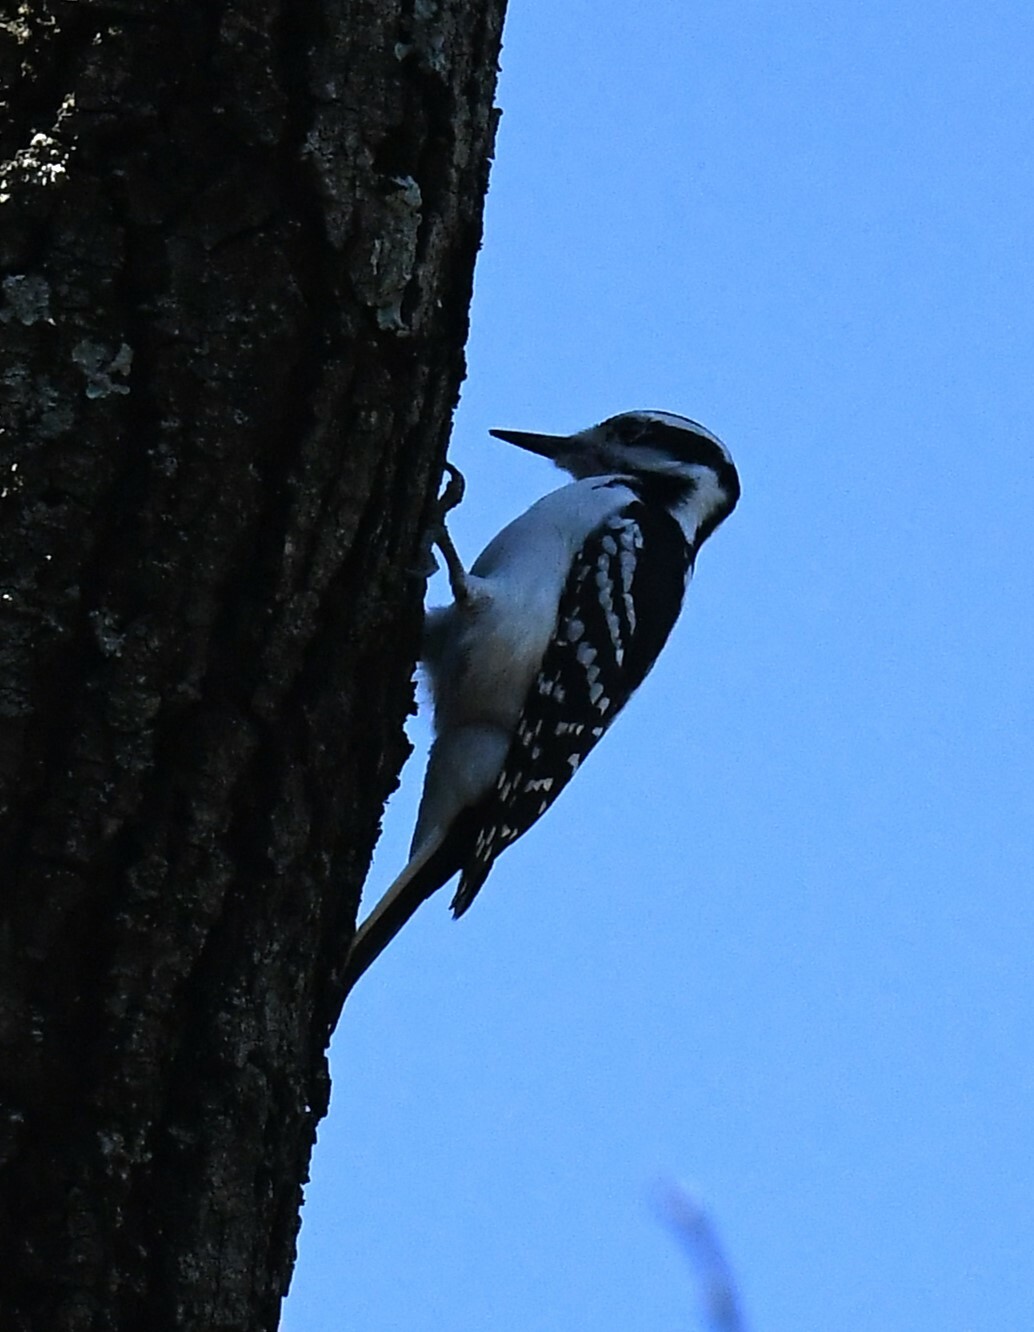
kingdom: Animalia
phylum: Chordata
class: Aves
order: Piciformes
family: Picidae
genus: Leuconotopicus
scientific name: Leuconotopicus villosus
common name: Hairy woodpecker
